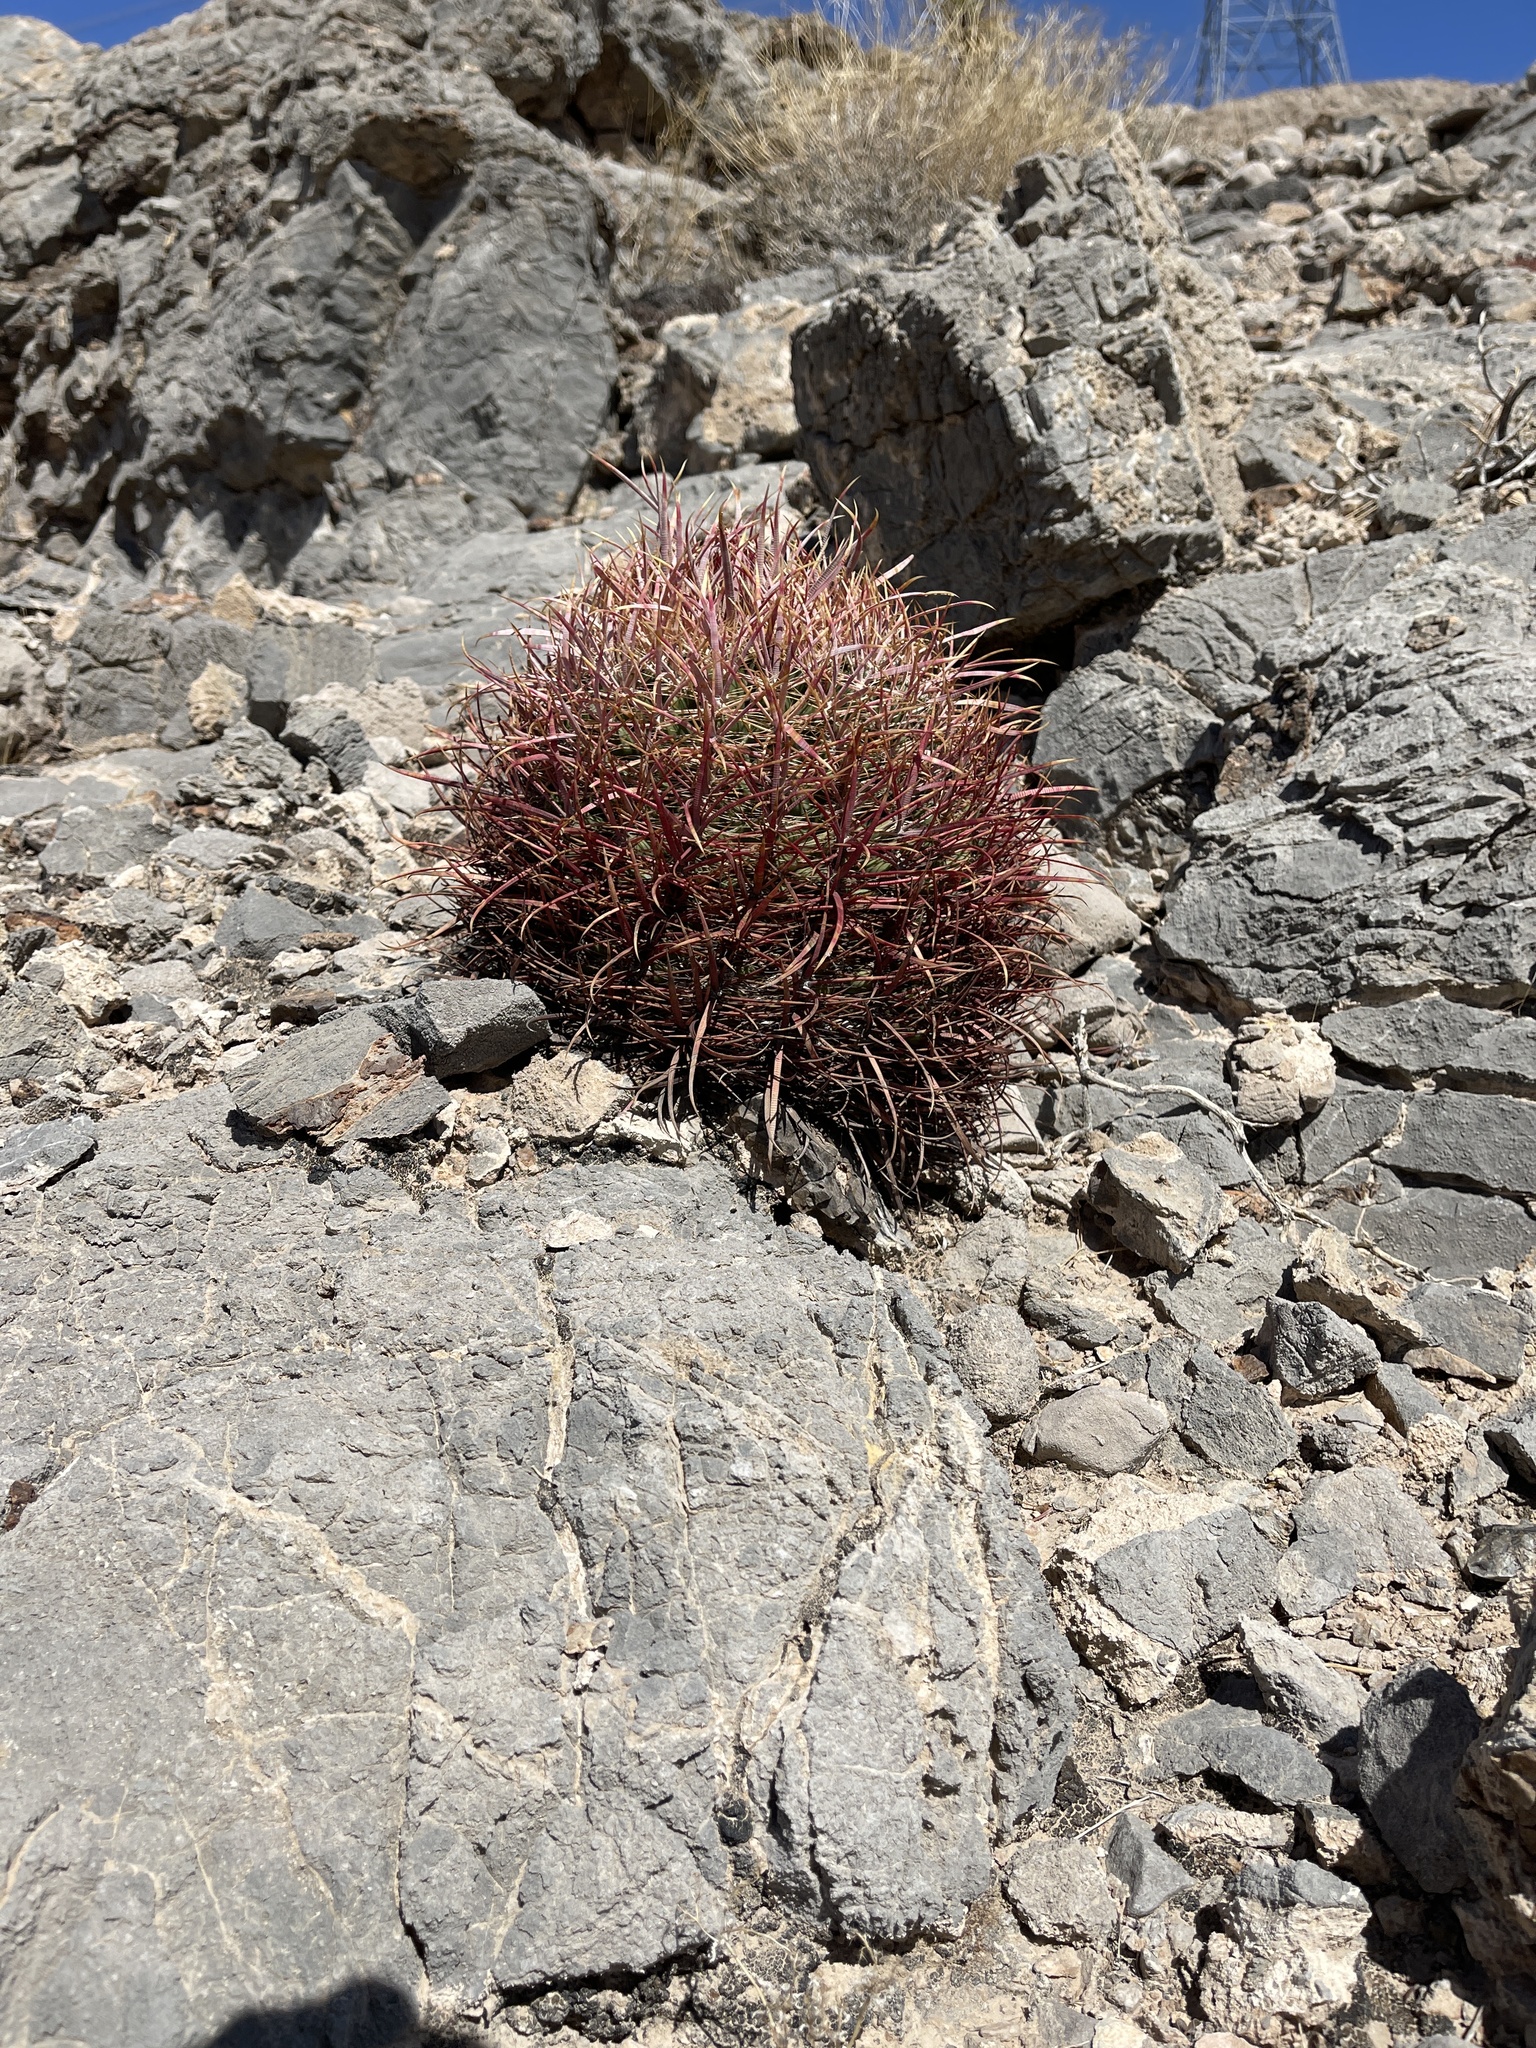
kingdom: Plantae
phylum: Tracheophyta
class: Magnoliopsida
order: Caryophyllales
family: Cactaceae
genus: Ferocactus
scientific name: Ferocactus cylindraceus
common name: California barrel cactus
